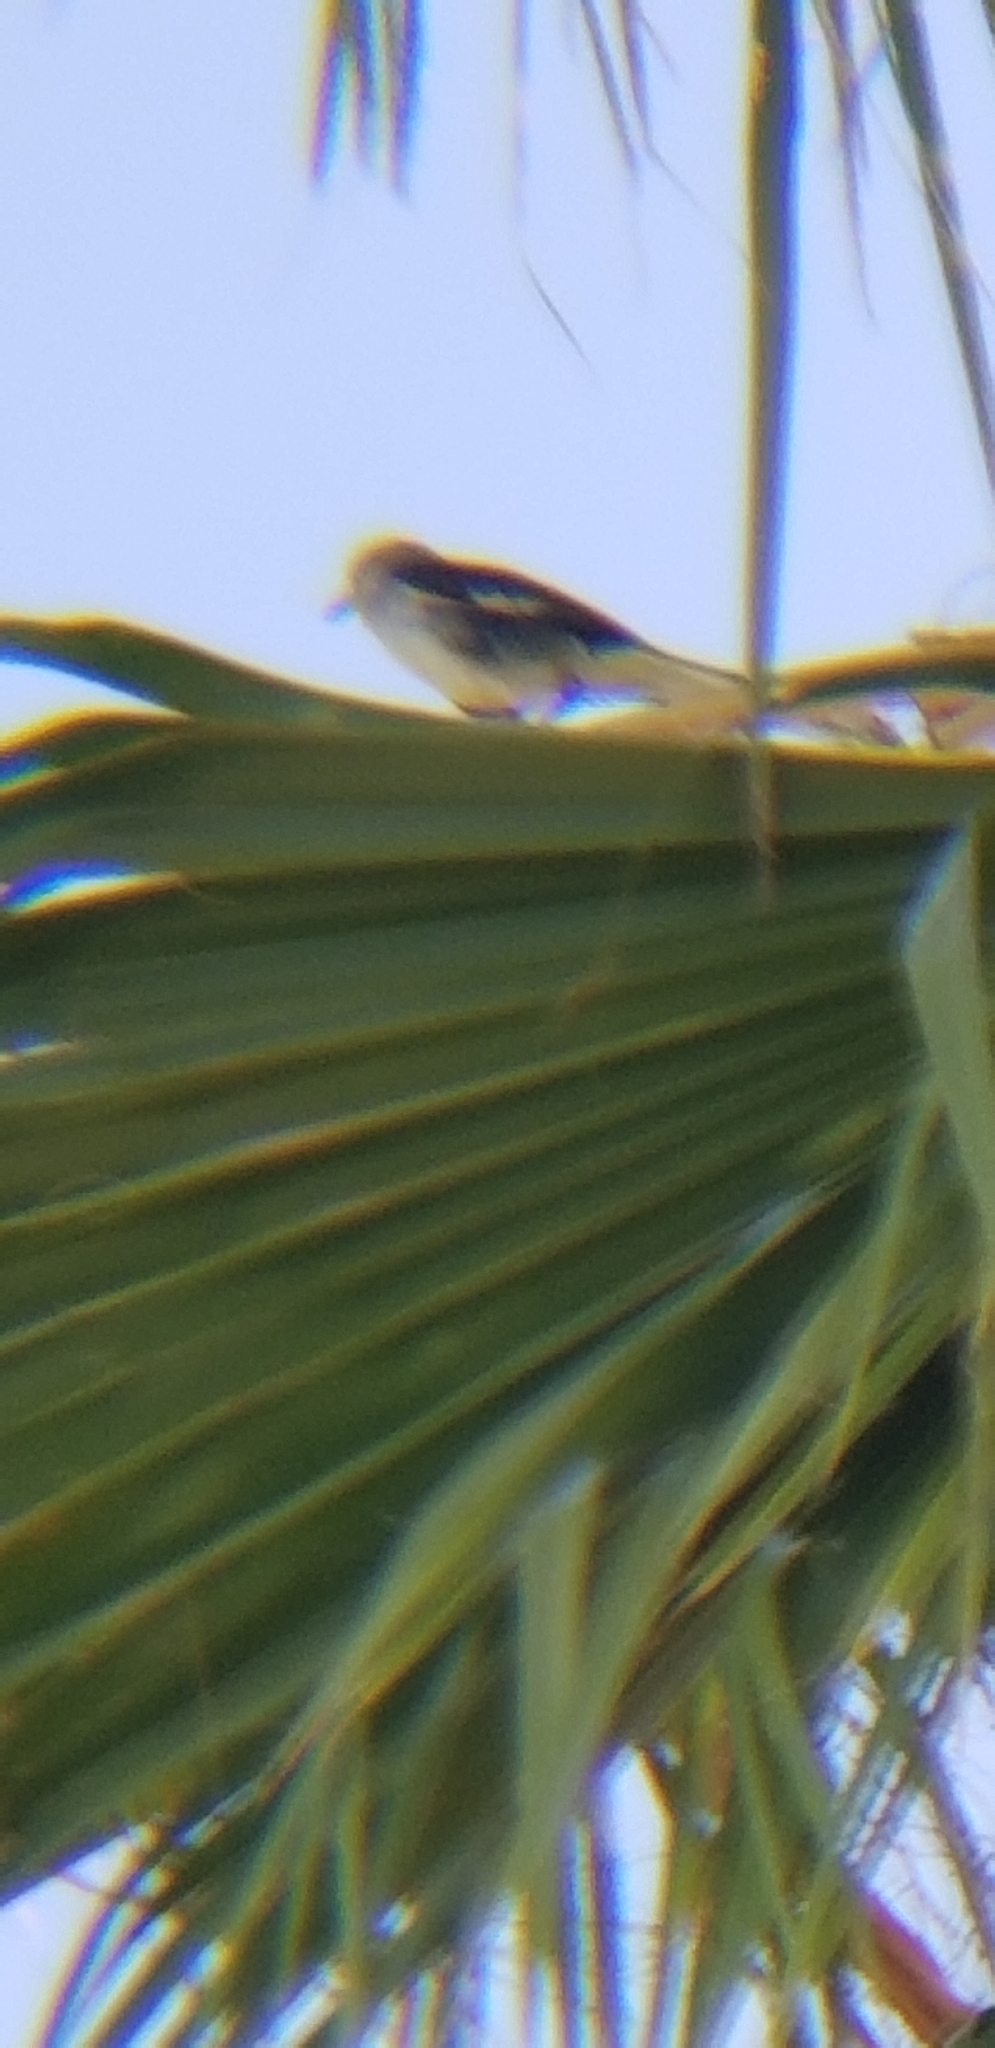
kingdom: Animalia
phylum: Chordata
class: Aves
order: Passeriformes
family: Mimidae
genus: Mimus
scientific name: Mimus polyglottos
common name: Northern mockingbird
